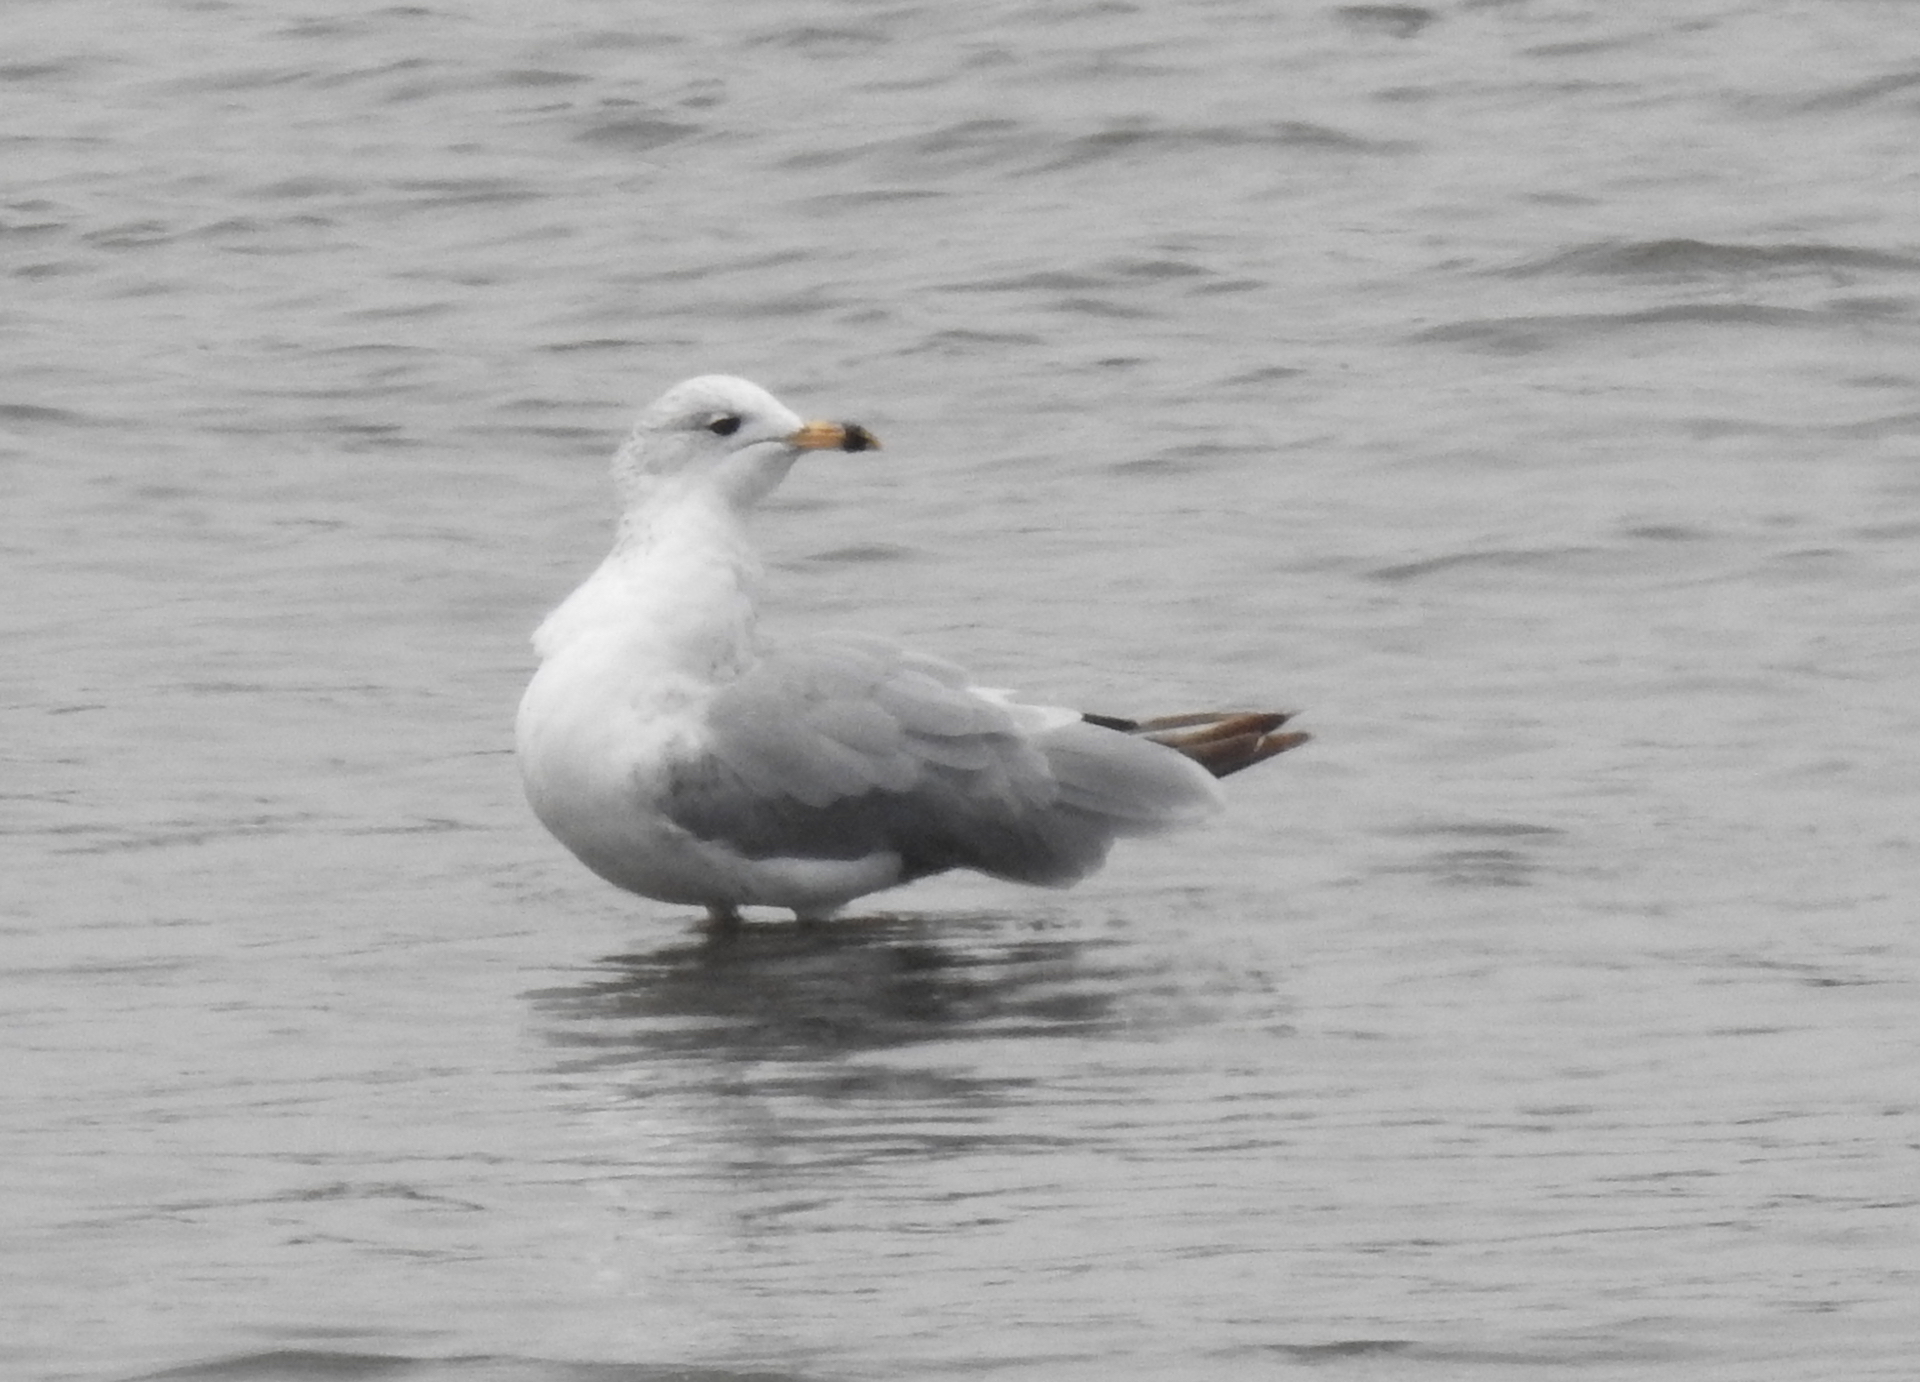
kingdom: Animalia
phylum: Chordata
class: Aves
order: Charadriiformes
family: Laridae
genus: Larus
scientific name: Larus delawarensis
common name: Ring-billed gull
